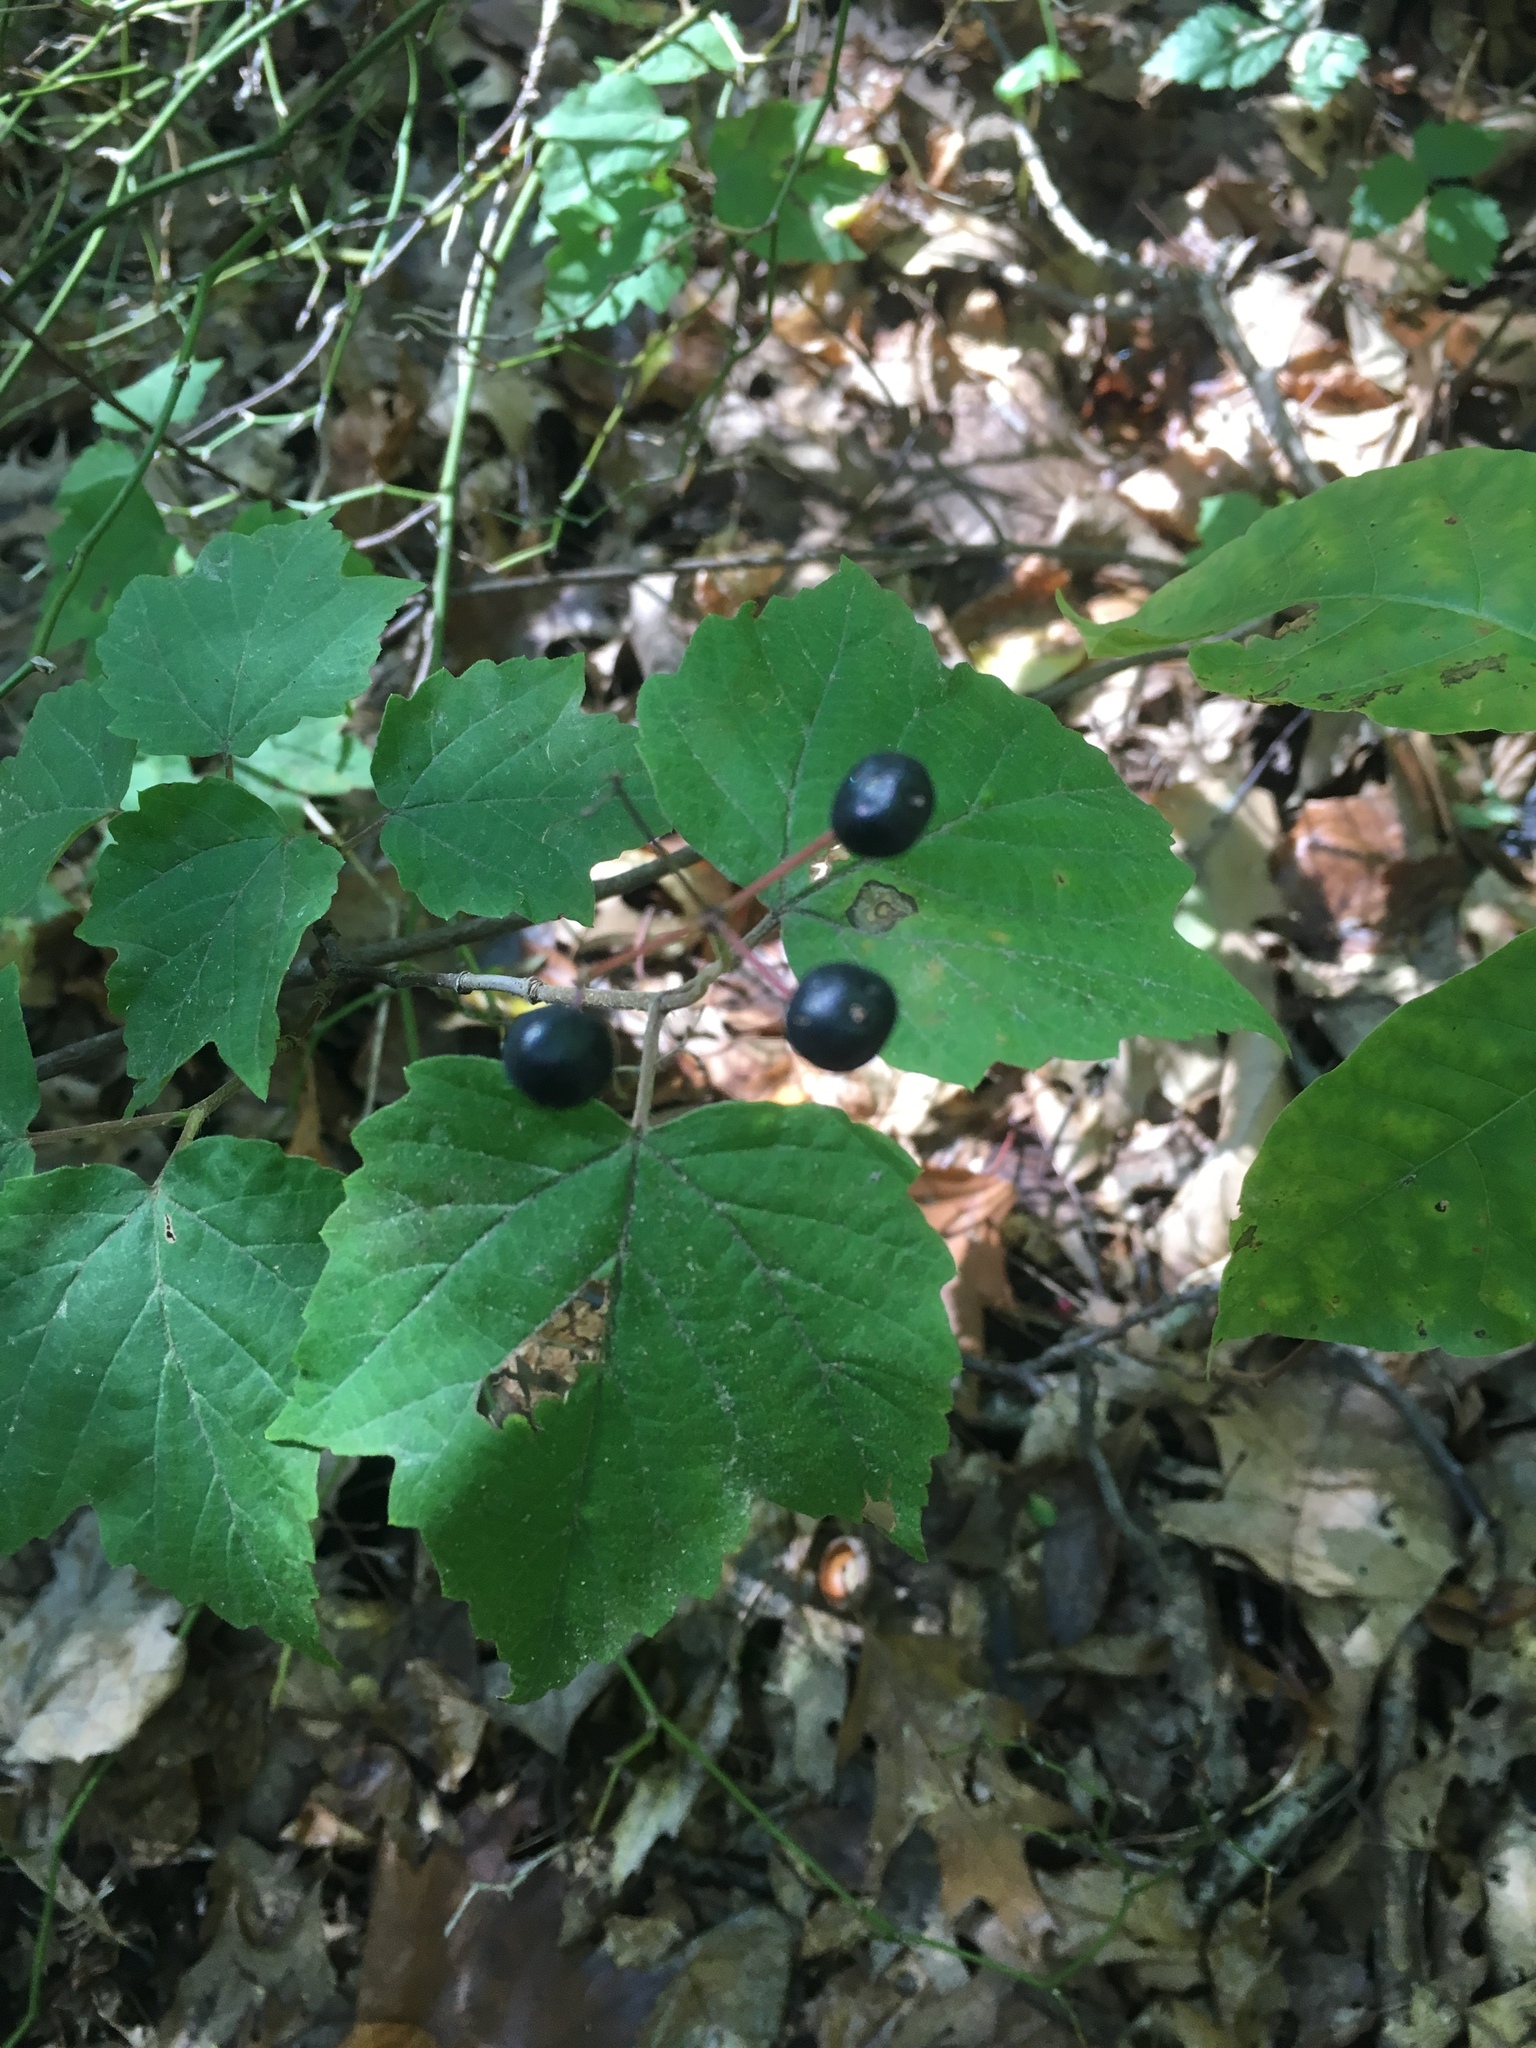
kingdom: Plantae
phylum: Tracheophyta
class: Magnoliopsida
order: Dipsacales
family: Viburnaceae
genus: Viburnum
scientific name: Viburnum acerifolium
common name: Dockmackie
